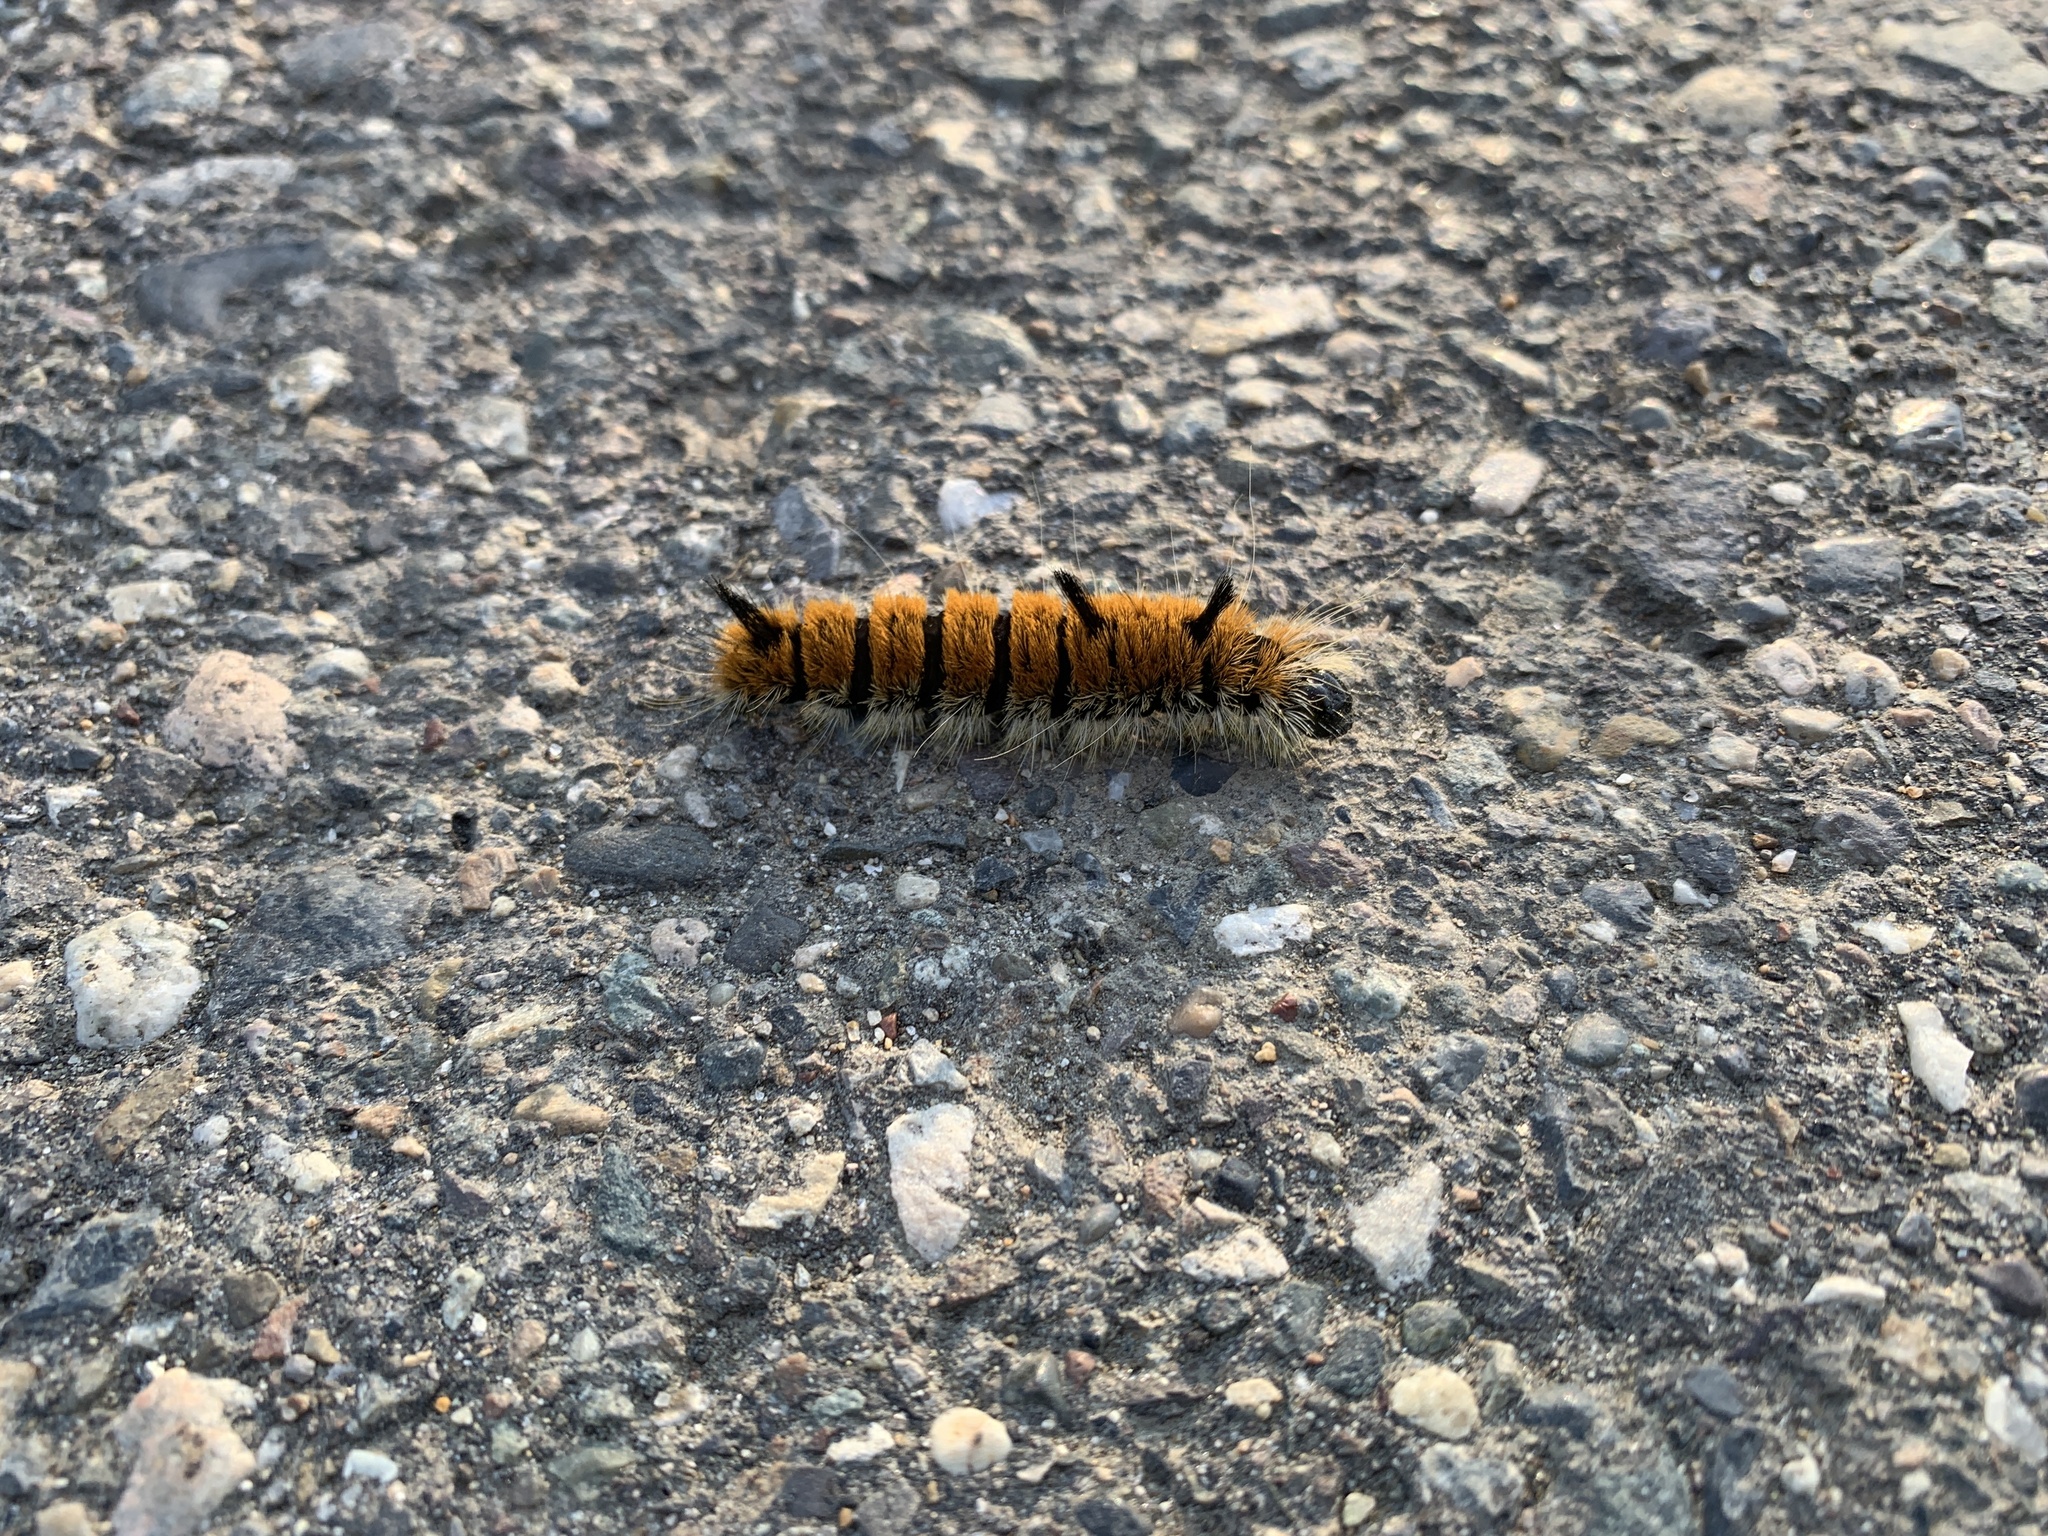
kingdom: Animalia
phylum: Arthropoda
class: Insecta
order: Lepidoptera
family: Noctuidae
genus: Acronicta
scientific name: Acronicta insita
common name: Large gray dagger
